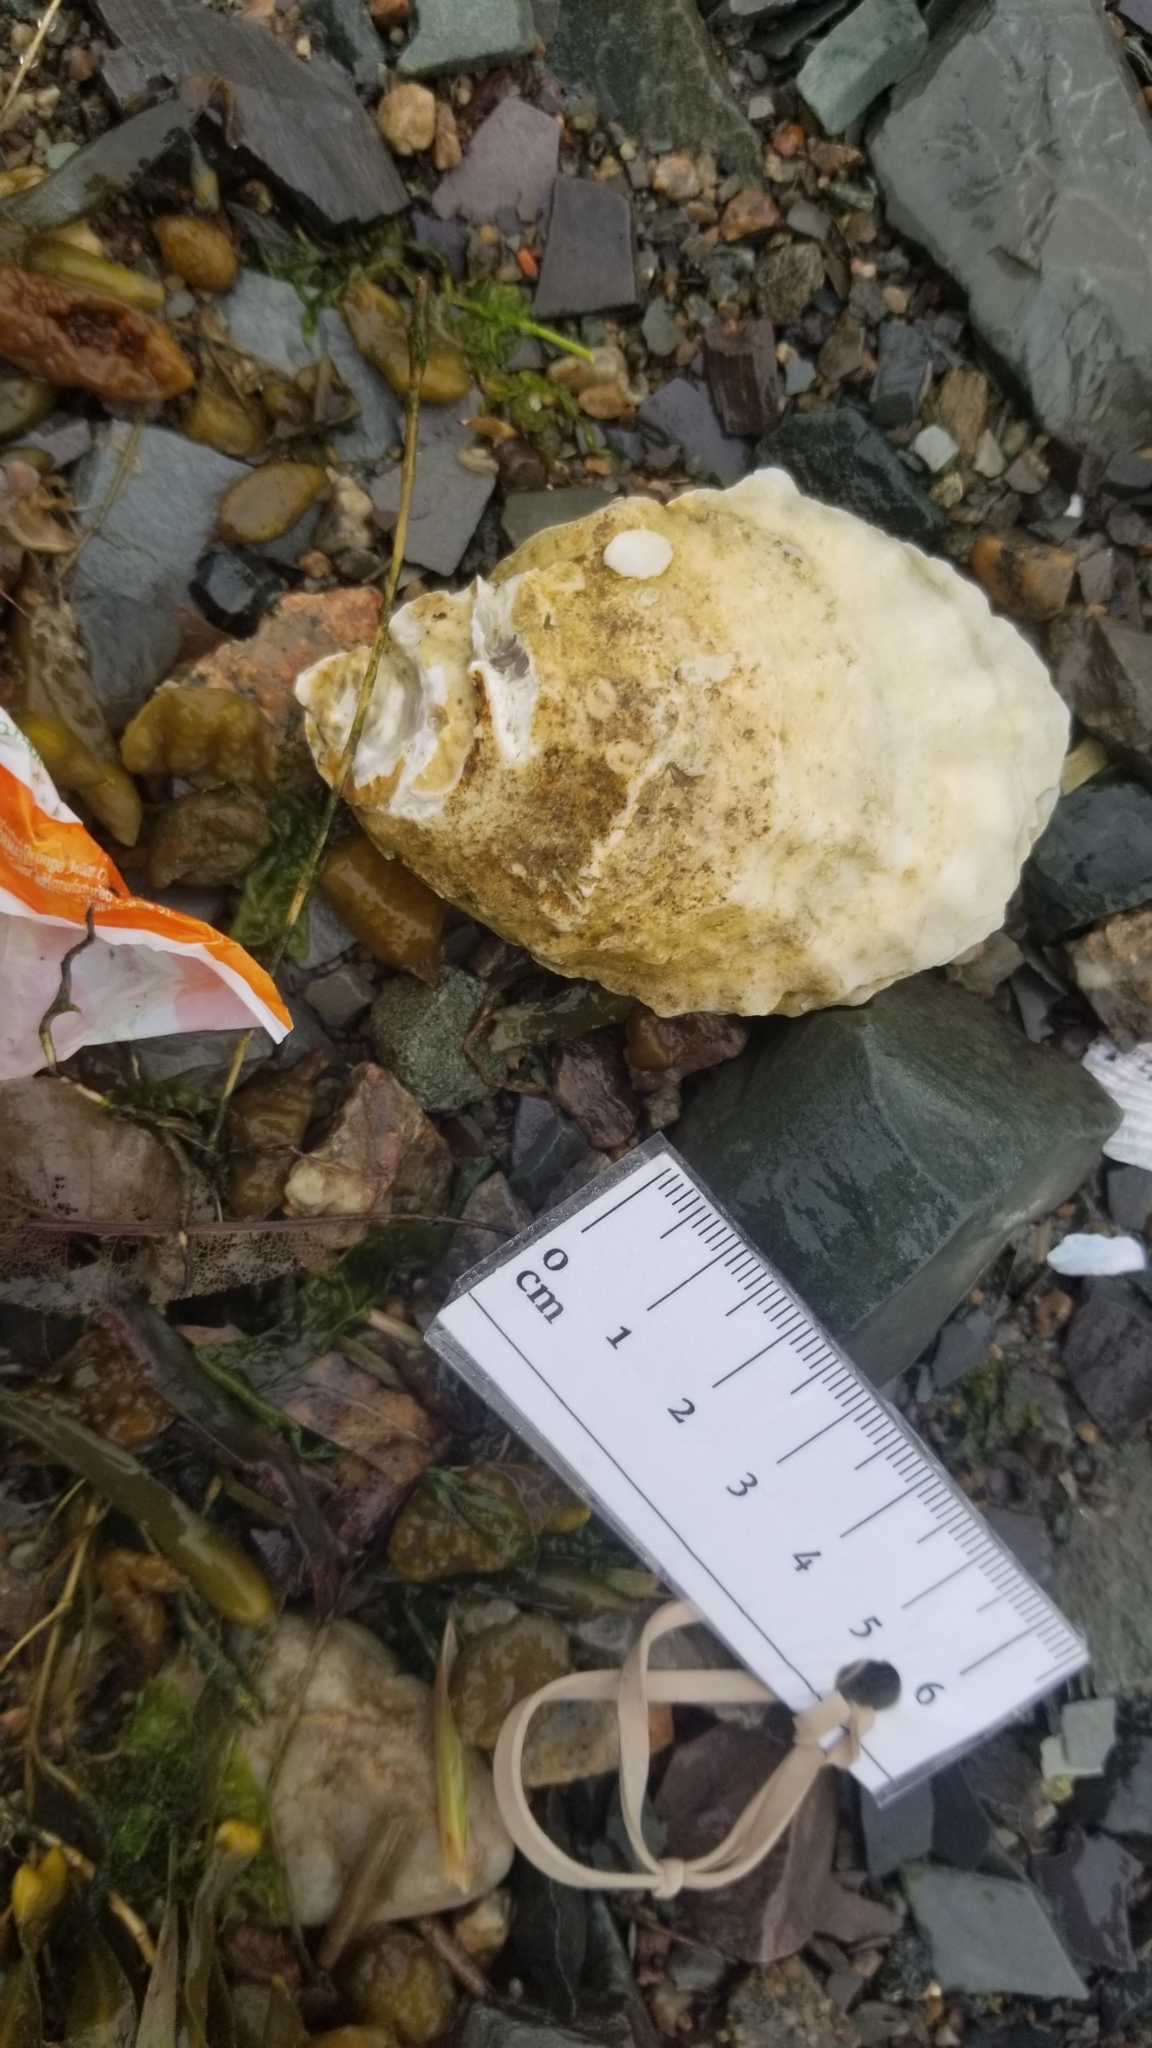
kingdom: Animalia
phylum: Mollusca
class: Bivalvia
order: Ostreida
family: Ostreidae
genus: Crassostrea
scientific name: Crassostrea virginica
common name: American oyster
